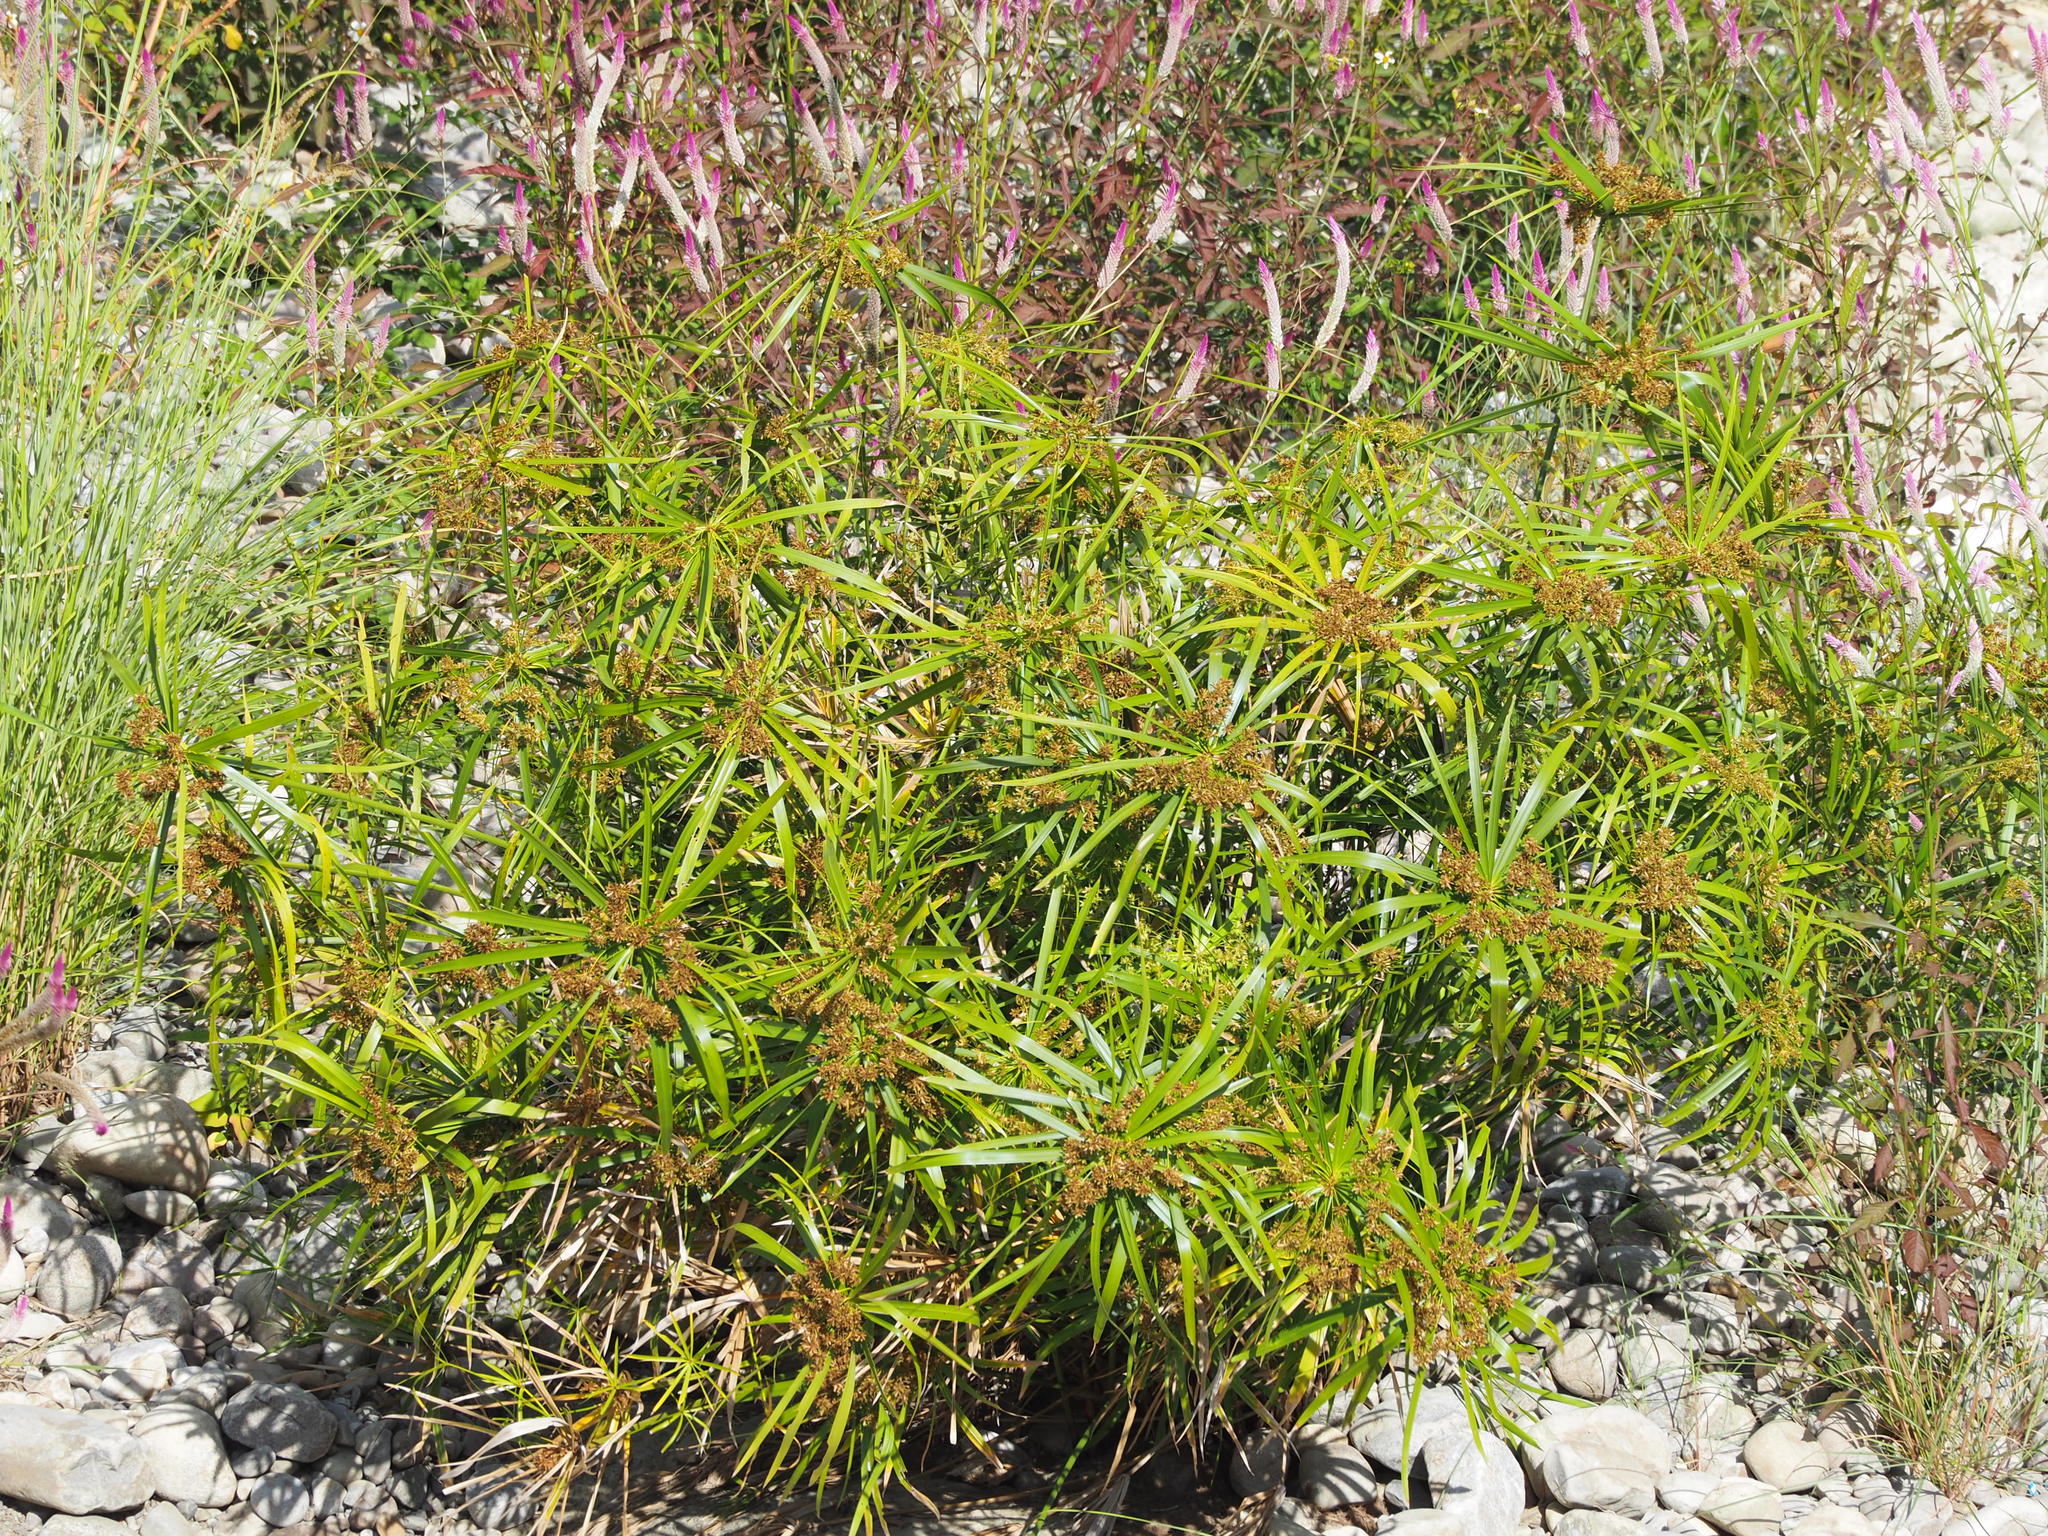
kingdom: Plantae
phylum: Tracheophyta
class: Liliopsida
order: Poales
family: Cyperaceae
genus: Cyperus
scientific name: Cyperus alternifolius
